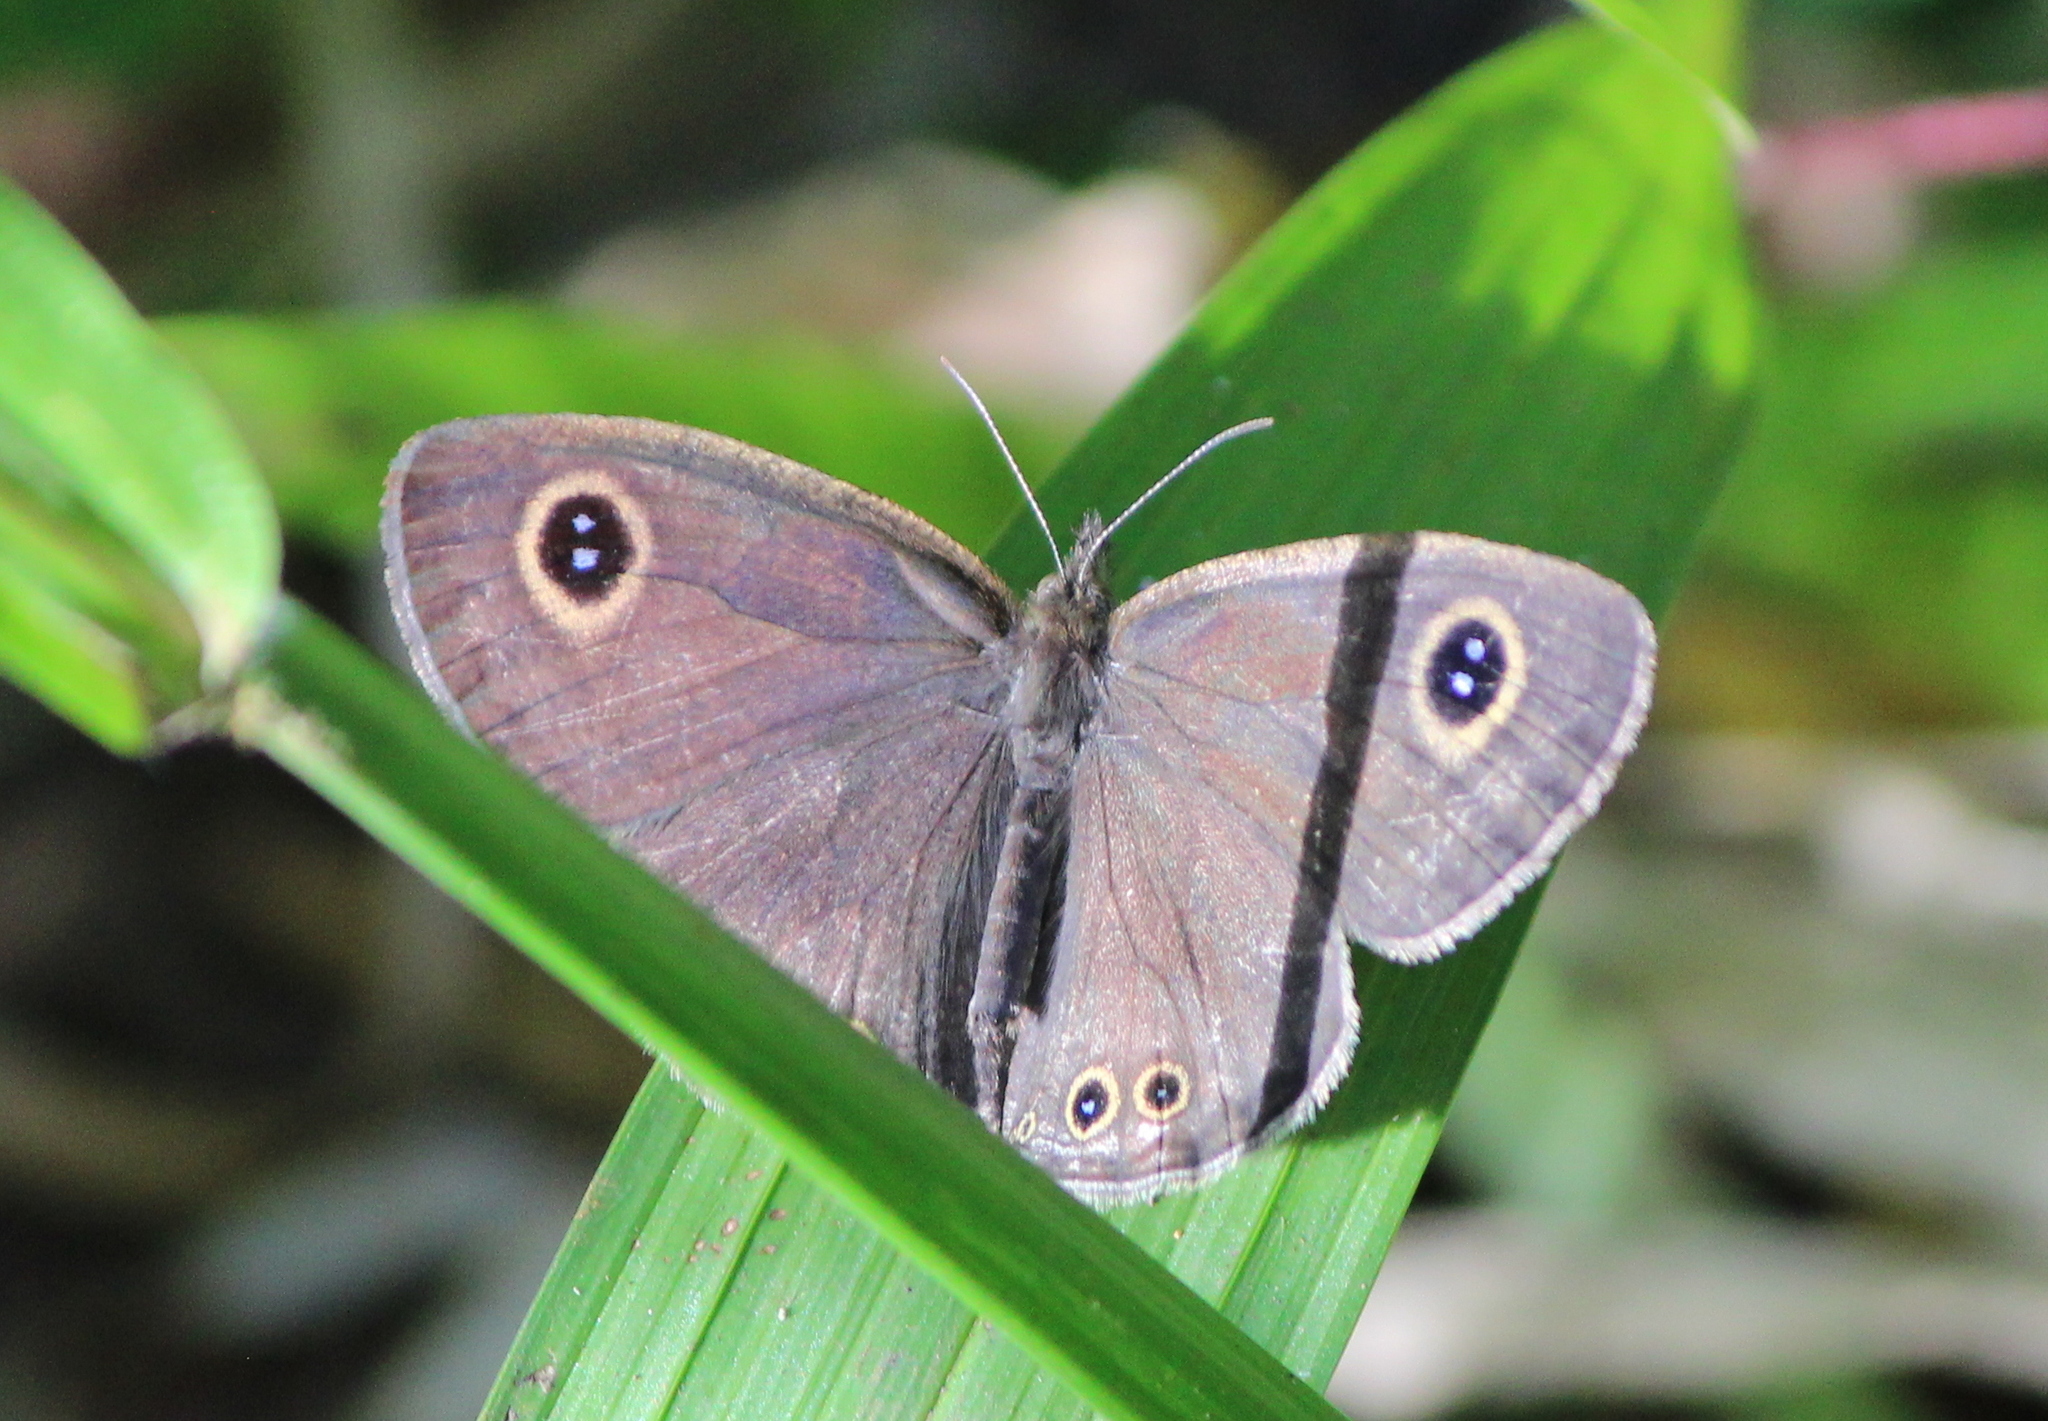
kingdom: Animalia
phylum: Arthropoda
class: Insecta
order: Lepidoptera
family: Nymphalidae
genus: Ypthima
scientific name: Ypthima huebneri
